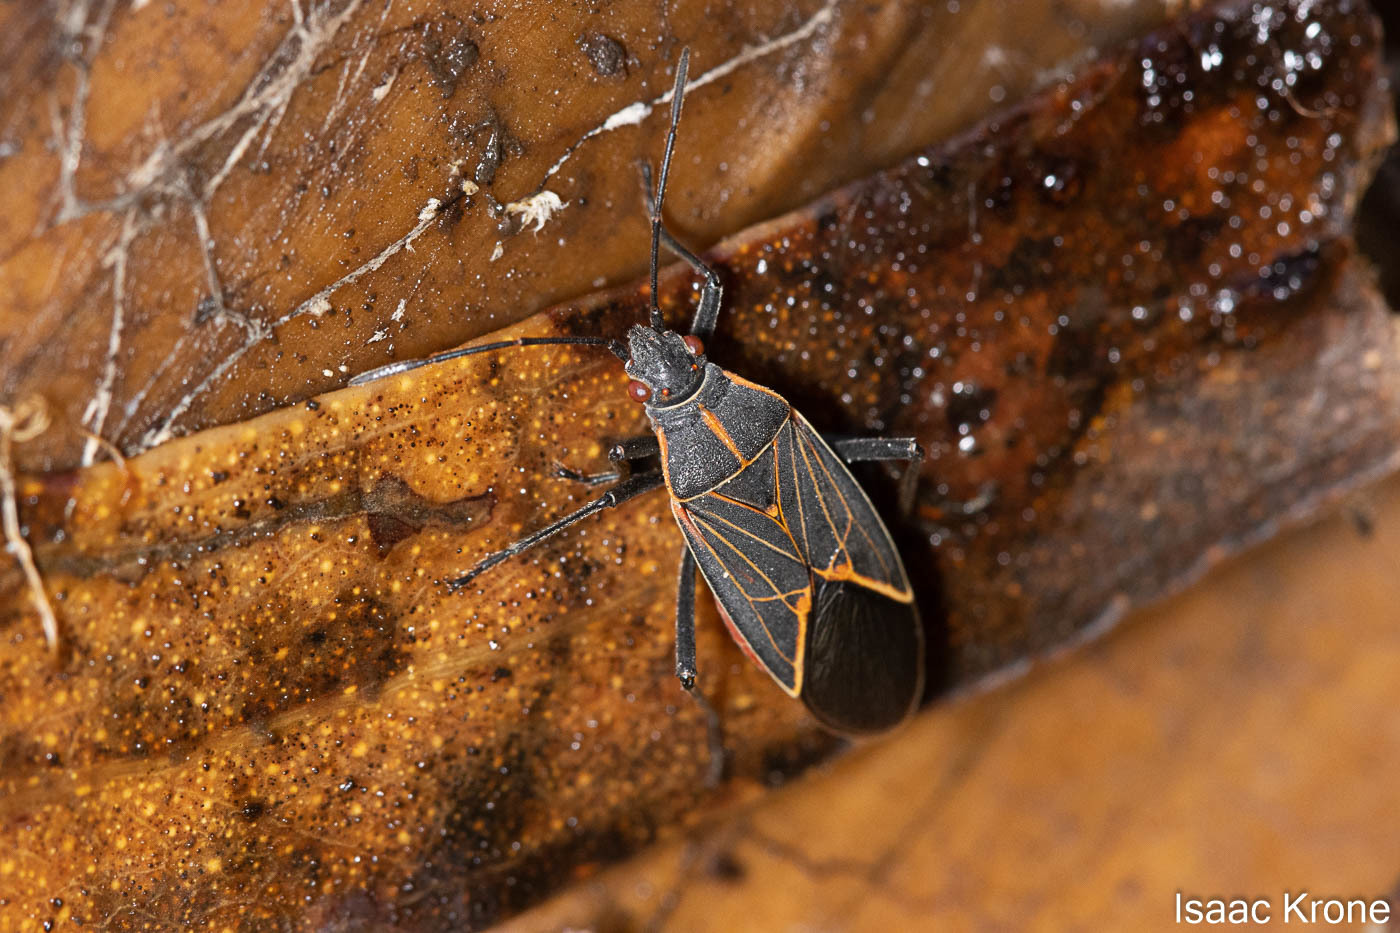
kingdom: Animalia
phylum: Arthropoda
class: Insecta
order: Hemiptera
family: Rhopalidae
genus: Boisea
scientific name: Boisea rubrolineata
